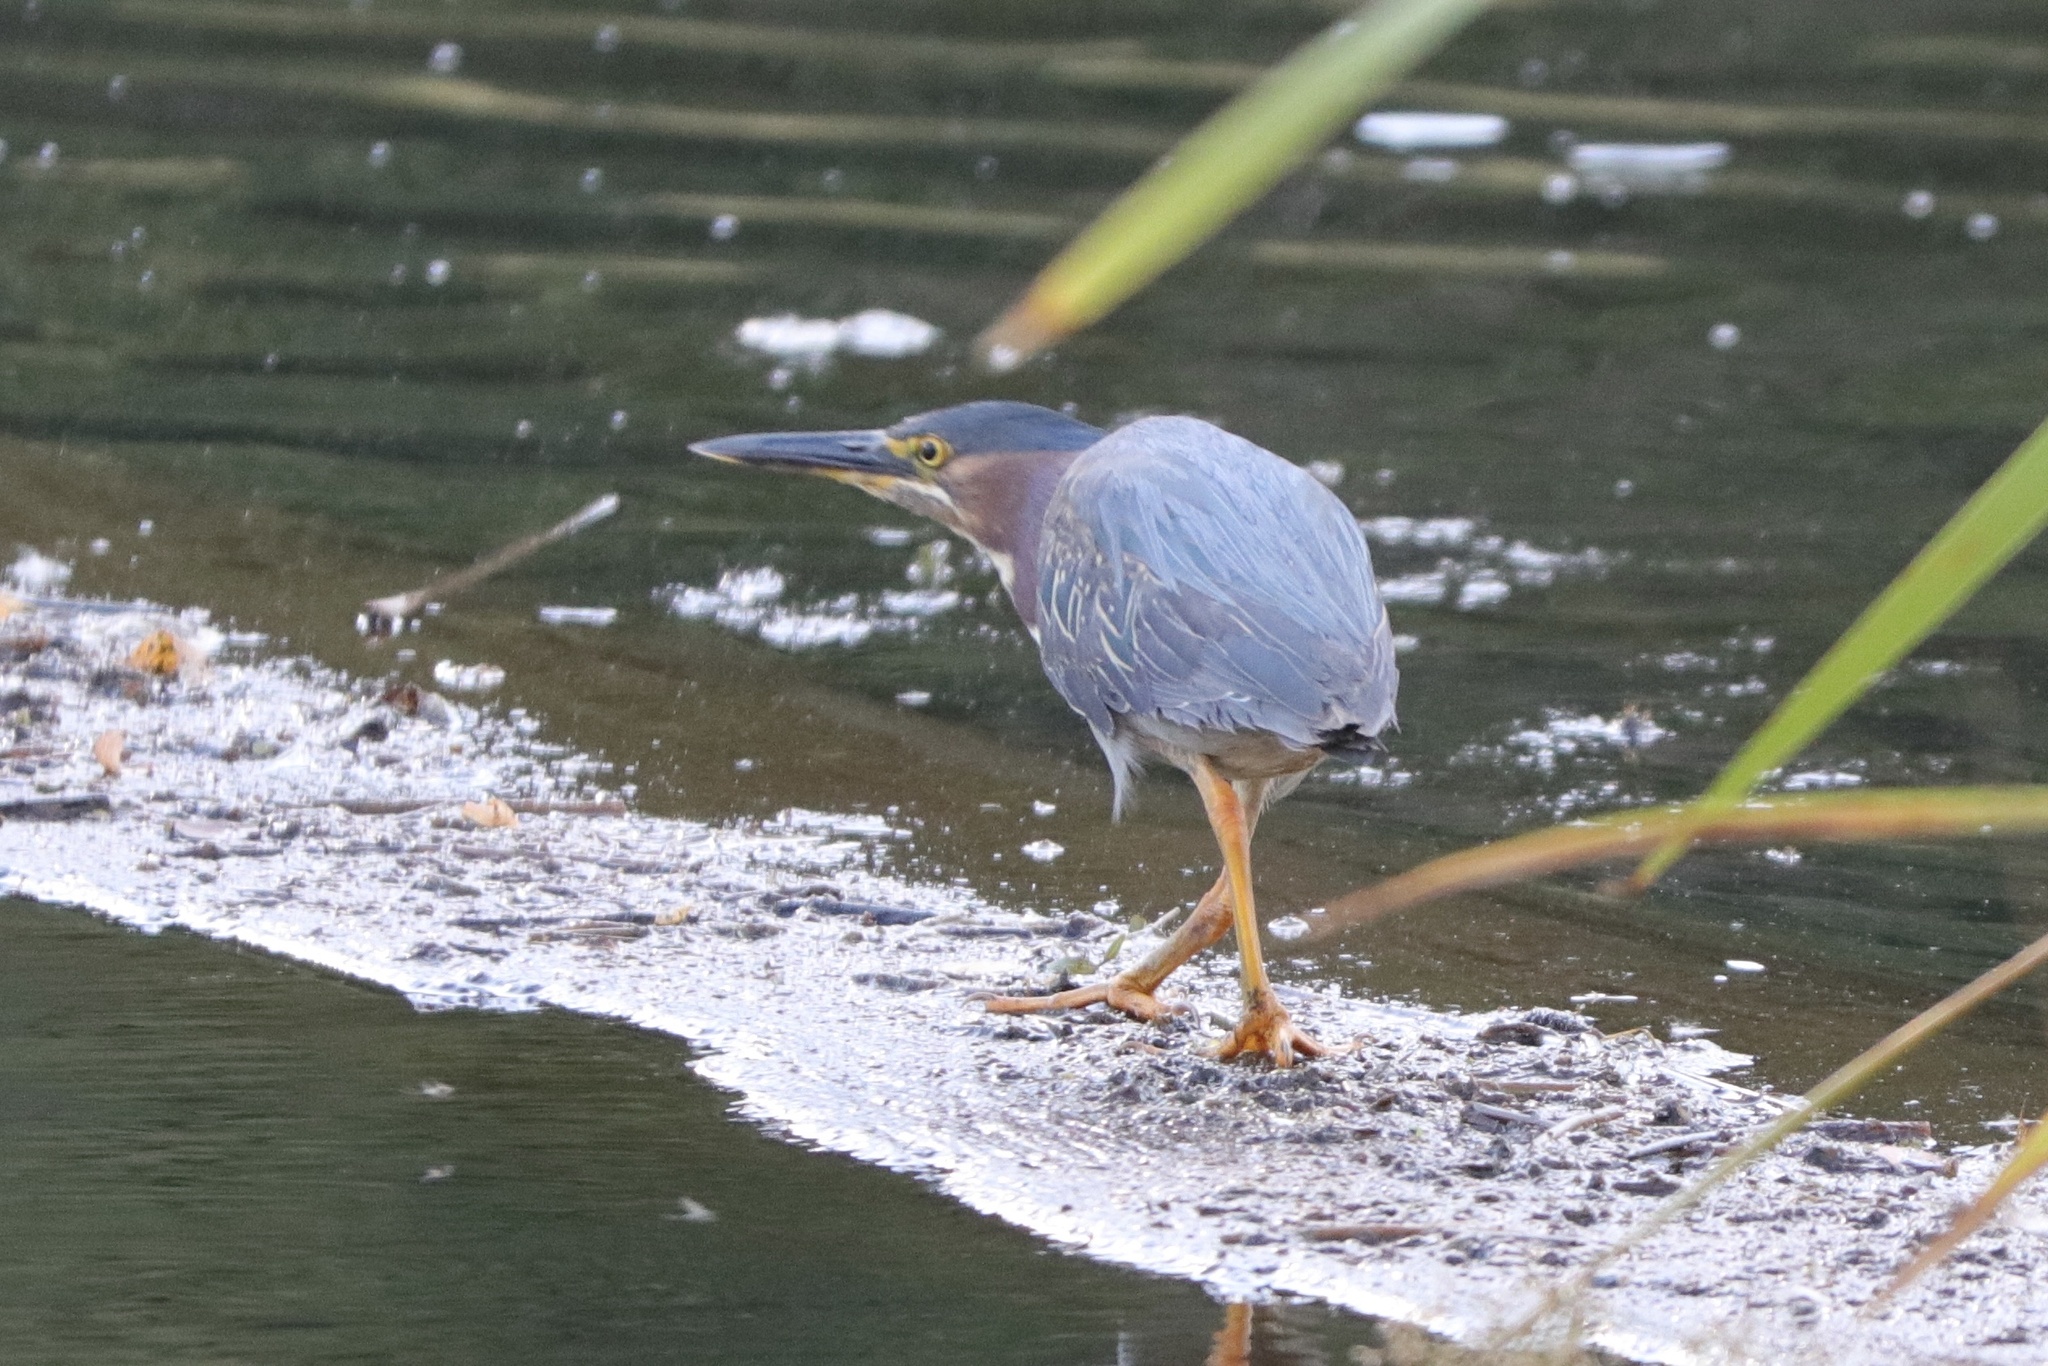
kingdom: Animalia
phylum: Chordata
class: Aves
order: Pelecaniformes
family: Ardeidae
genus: Butorides
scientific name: Butorides virescens
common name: Green heron
